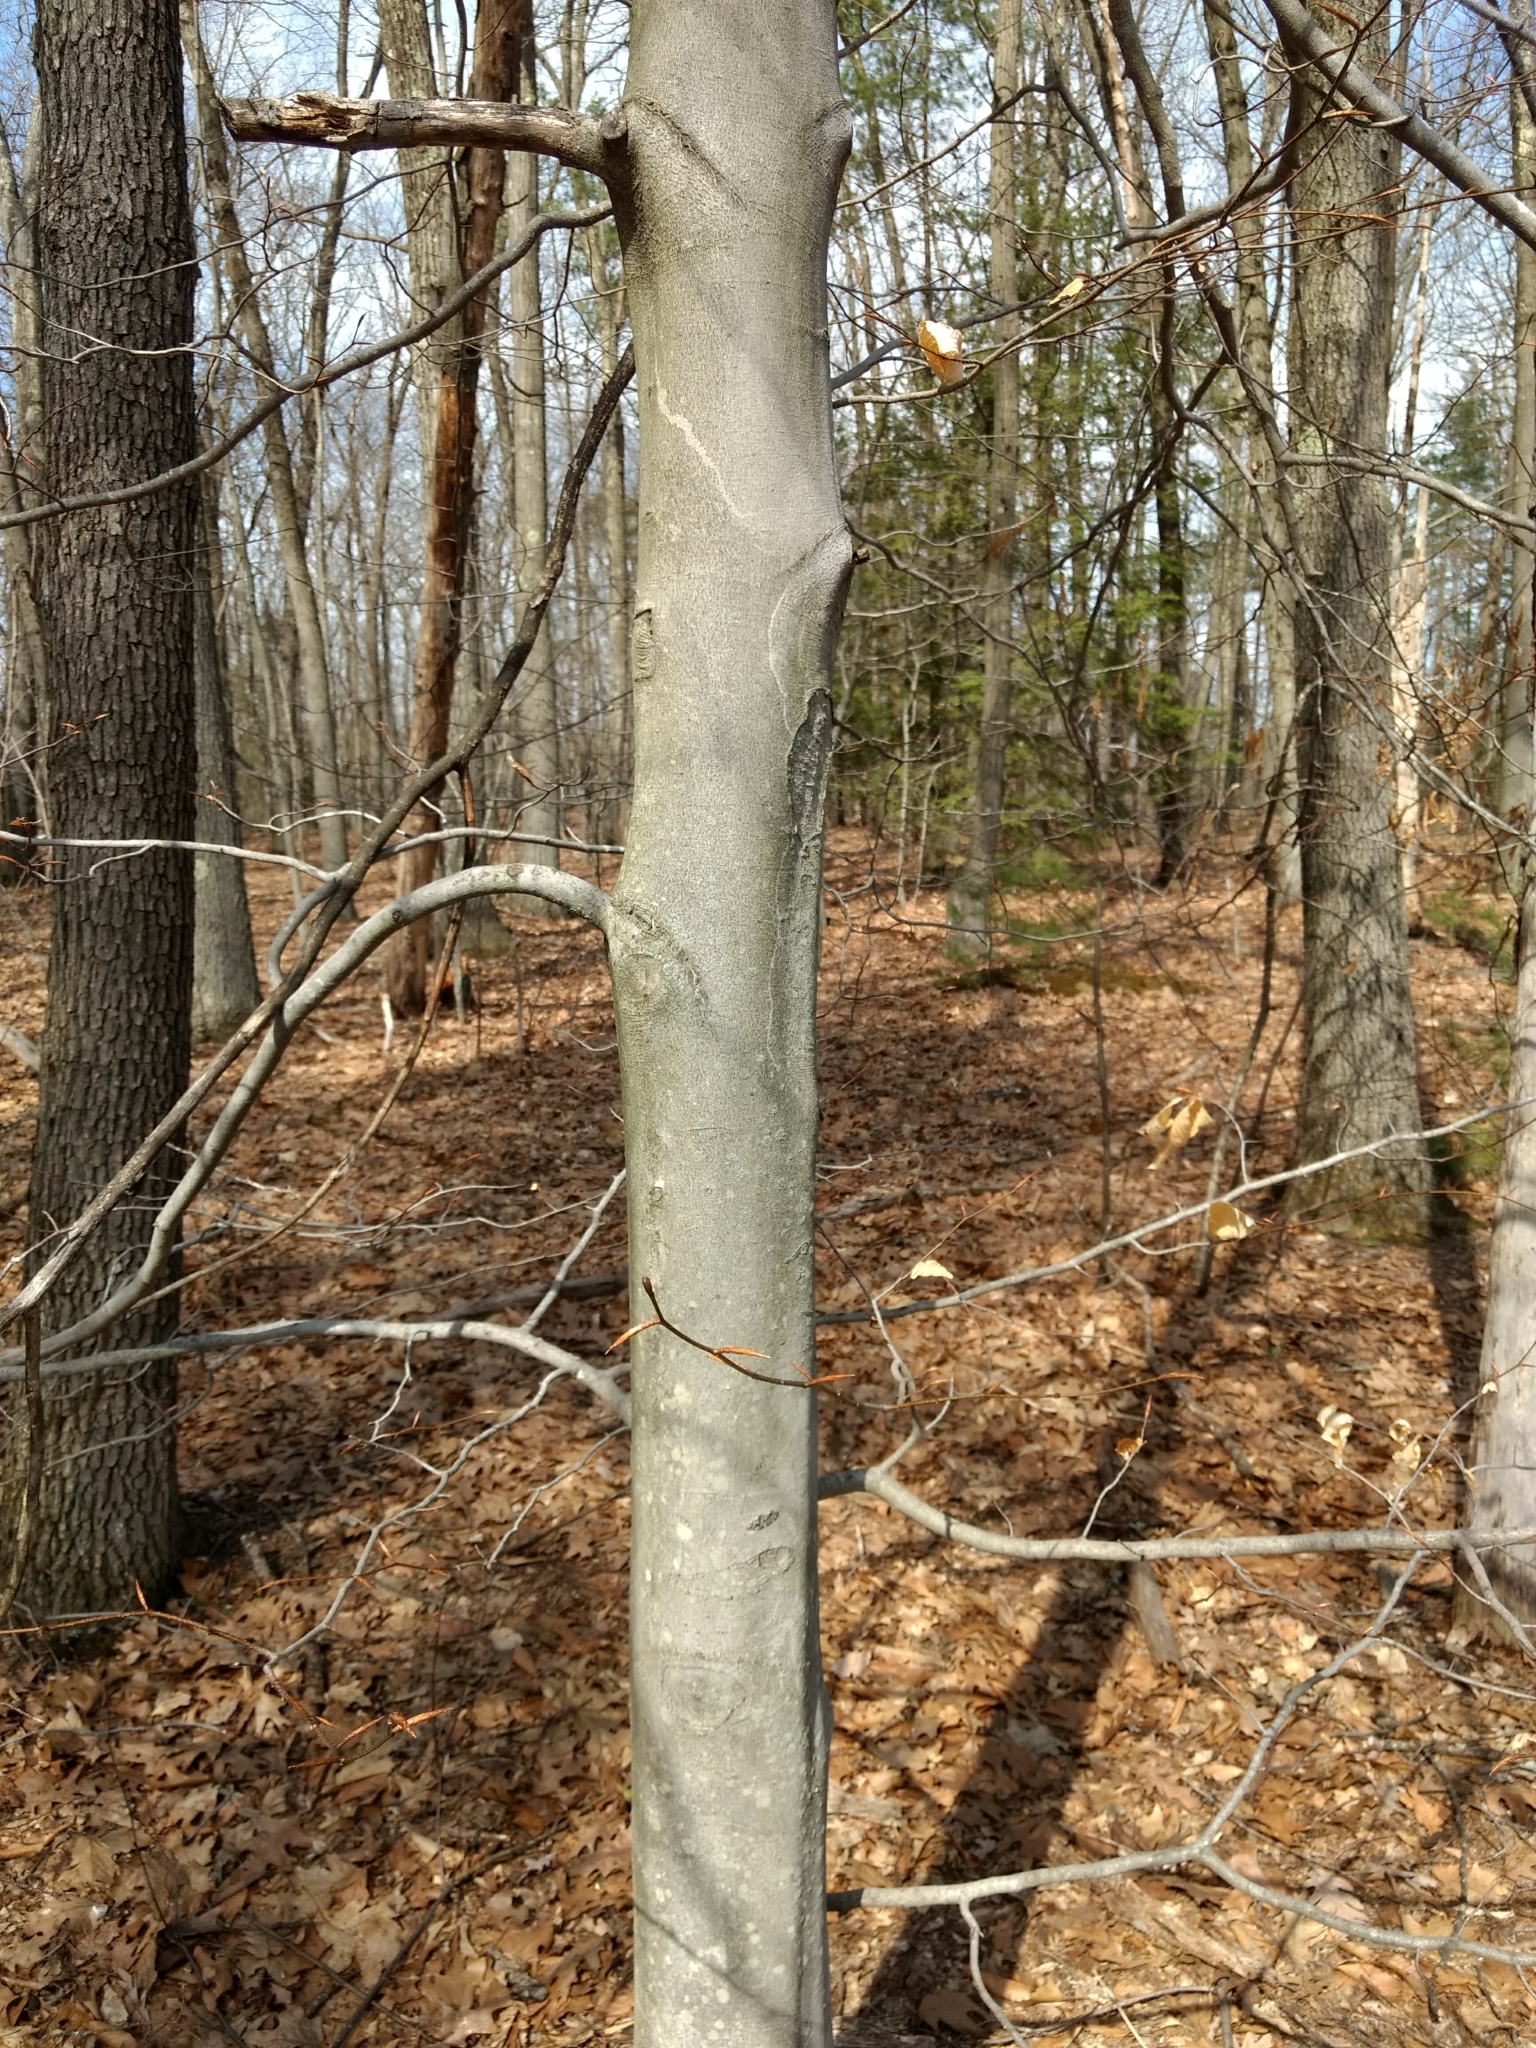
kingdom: Plantae
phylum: Tracheophyta
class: Magnoliopsida
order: Fagales
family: Fagaceae
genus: Fagus
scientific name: Fagus grandifolia
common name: American beech
